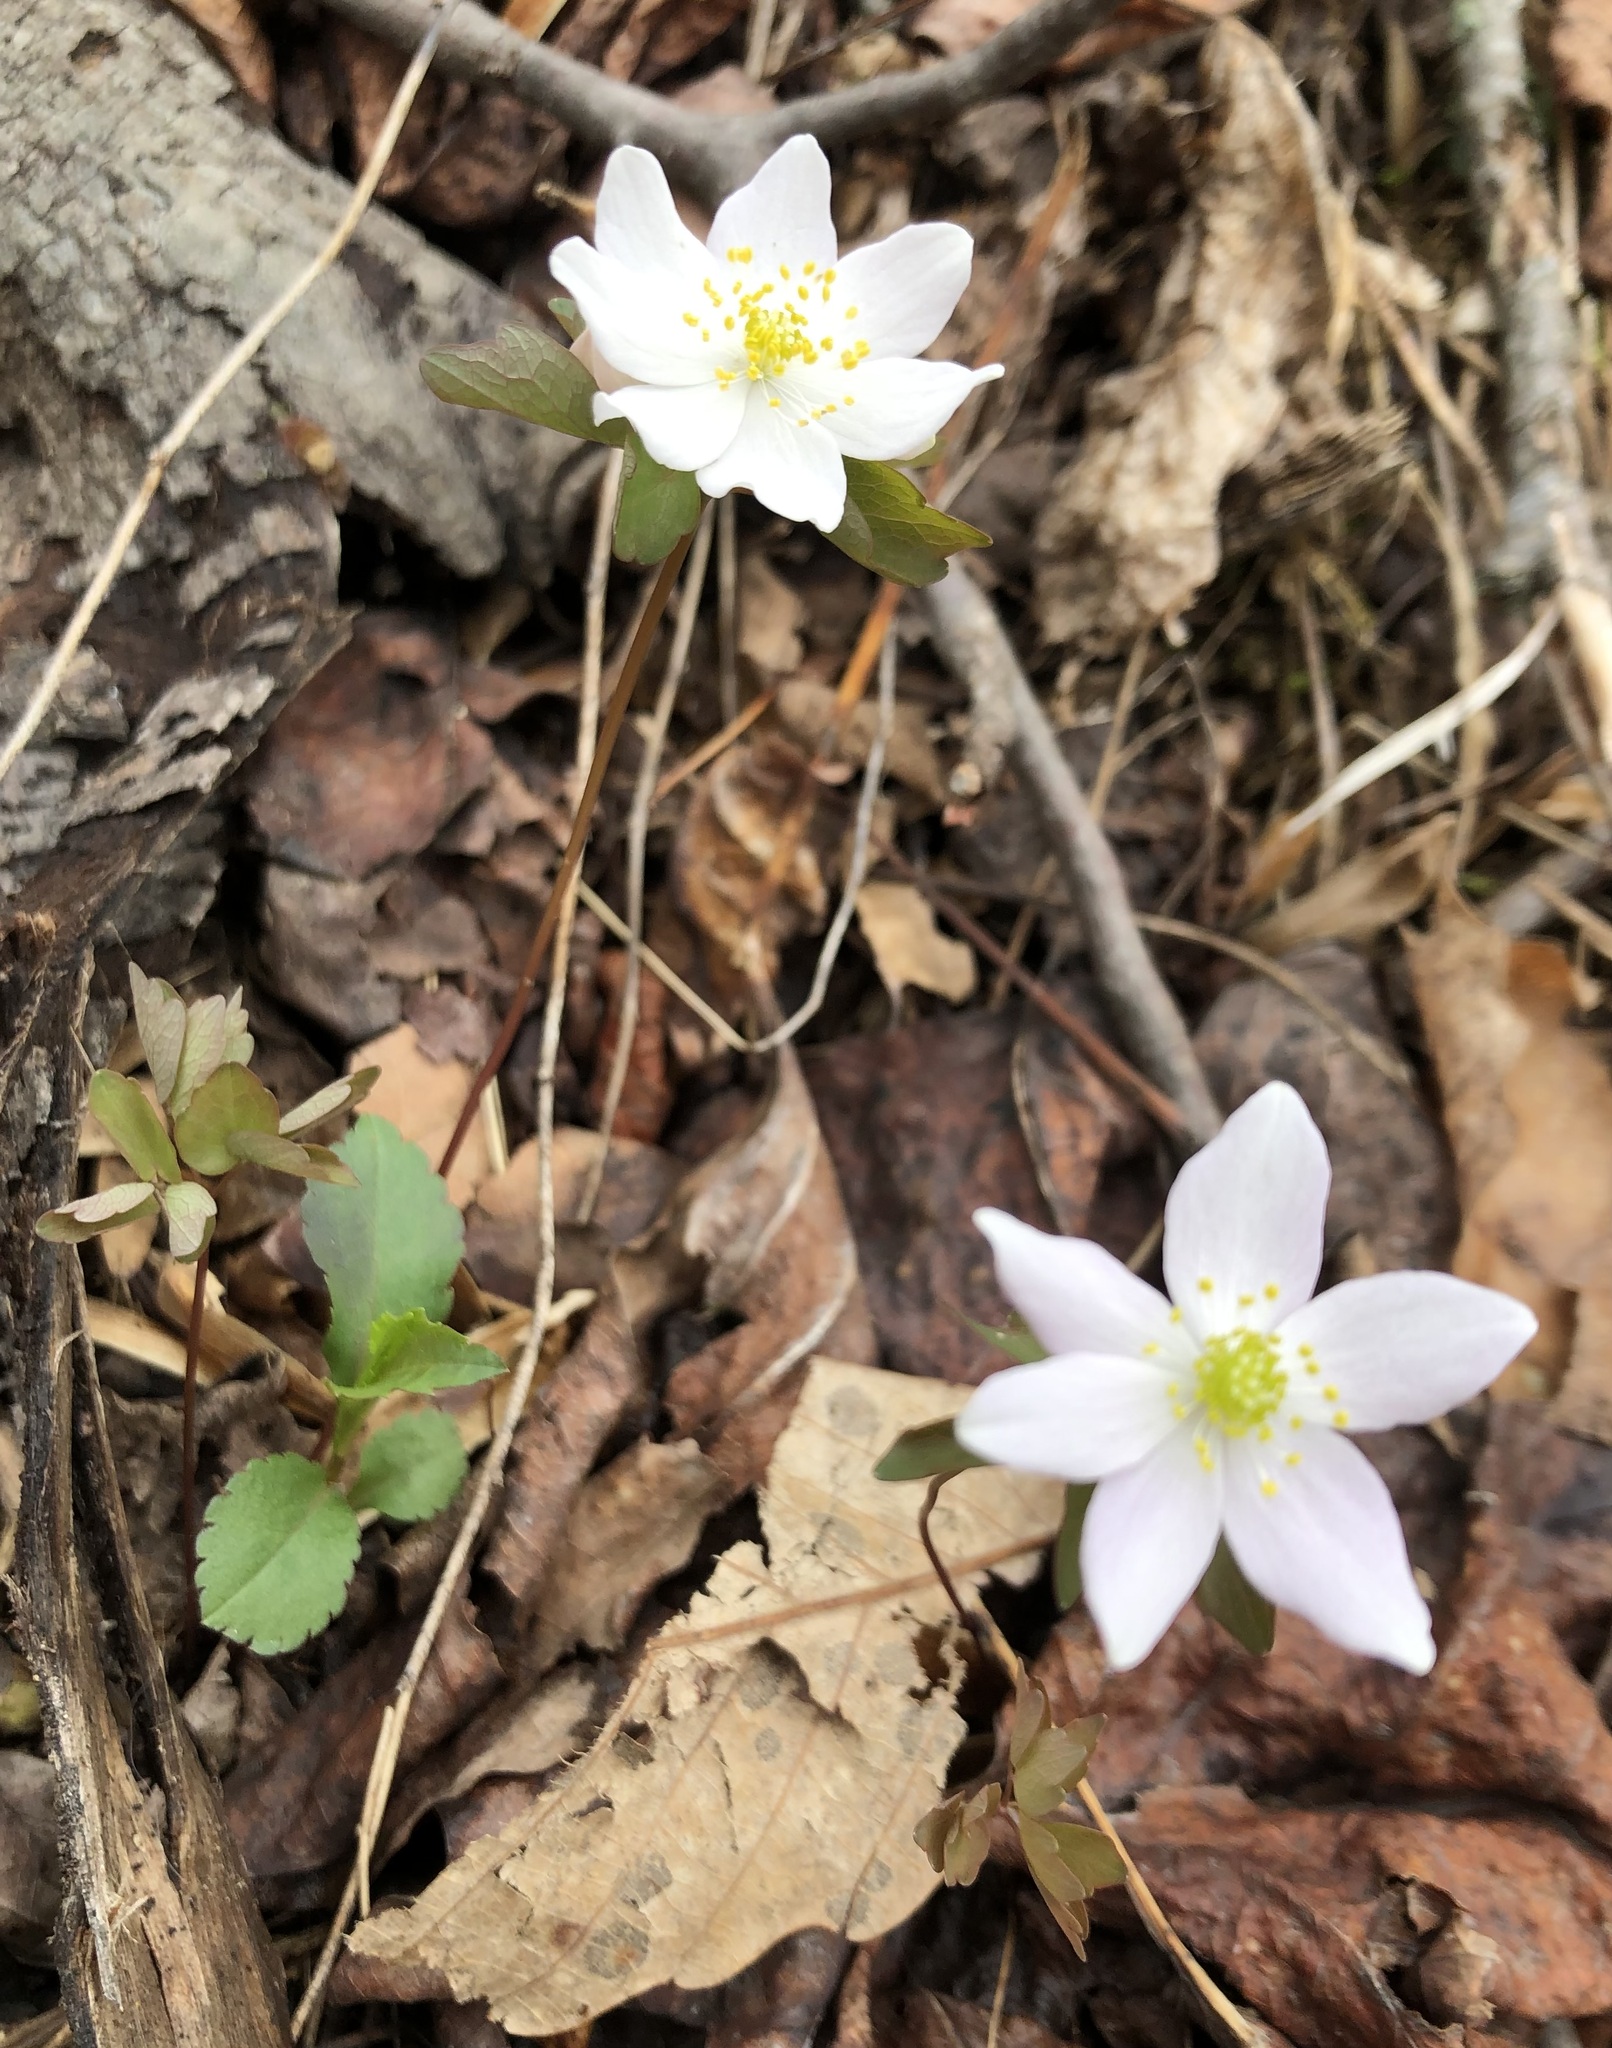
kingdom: Plantae
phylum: Tracheophyta
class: Magnoliopsida
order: Ranunculales
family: Ranunculaceae
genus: Thalictrum
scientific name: Thalictrum thalictroides
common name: Rue-anemone
